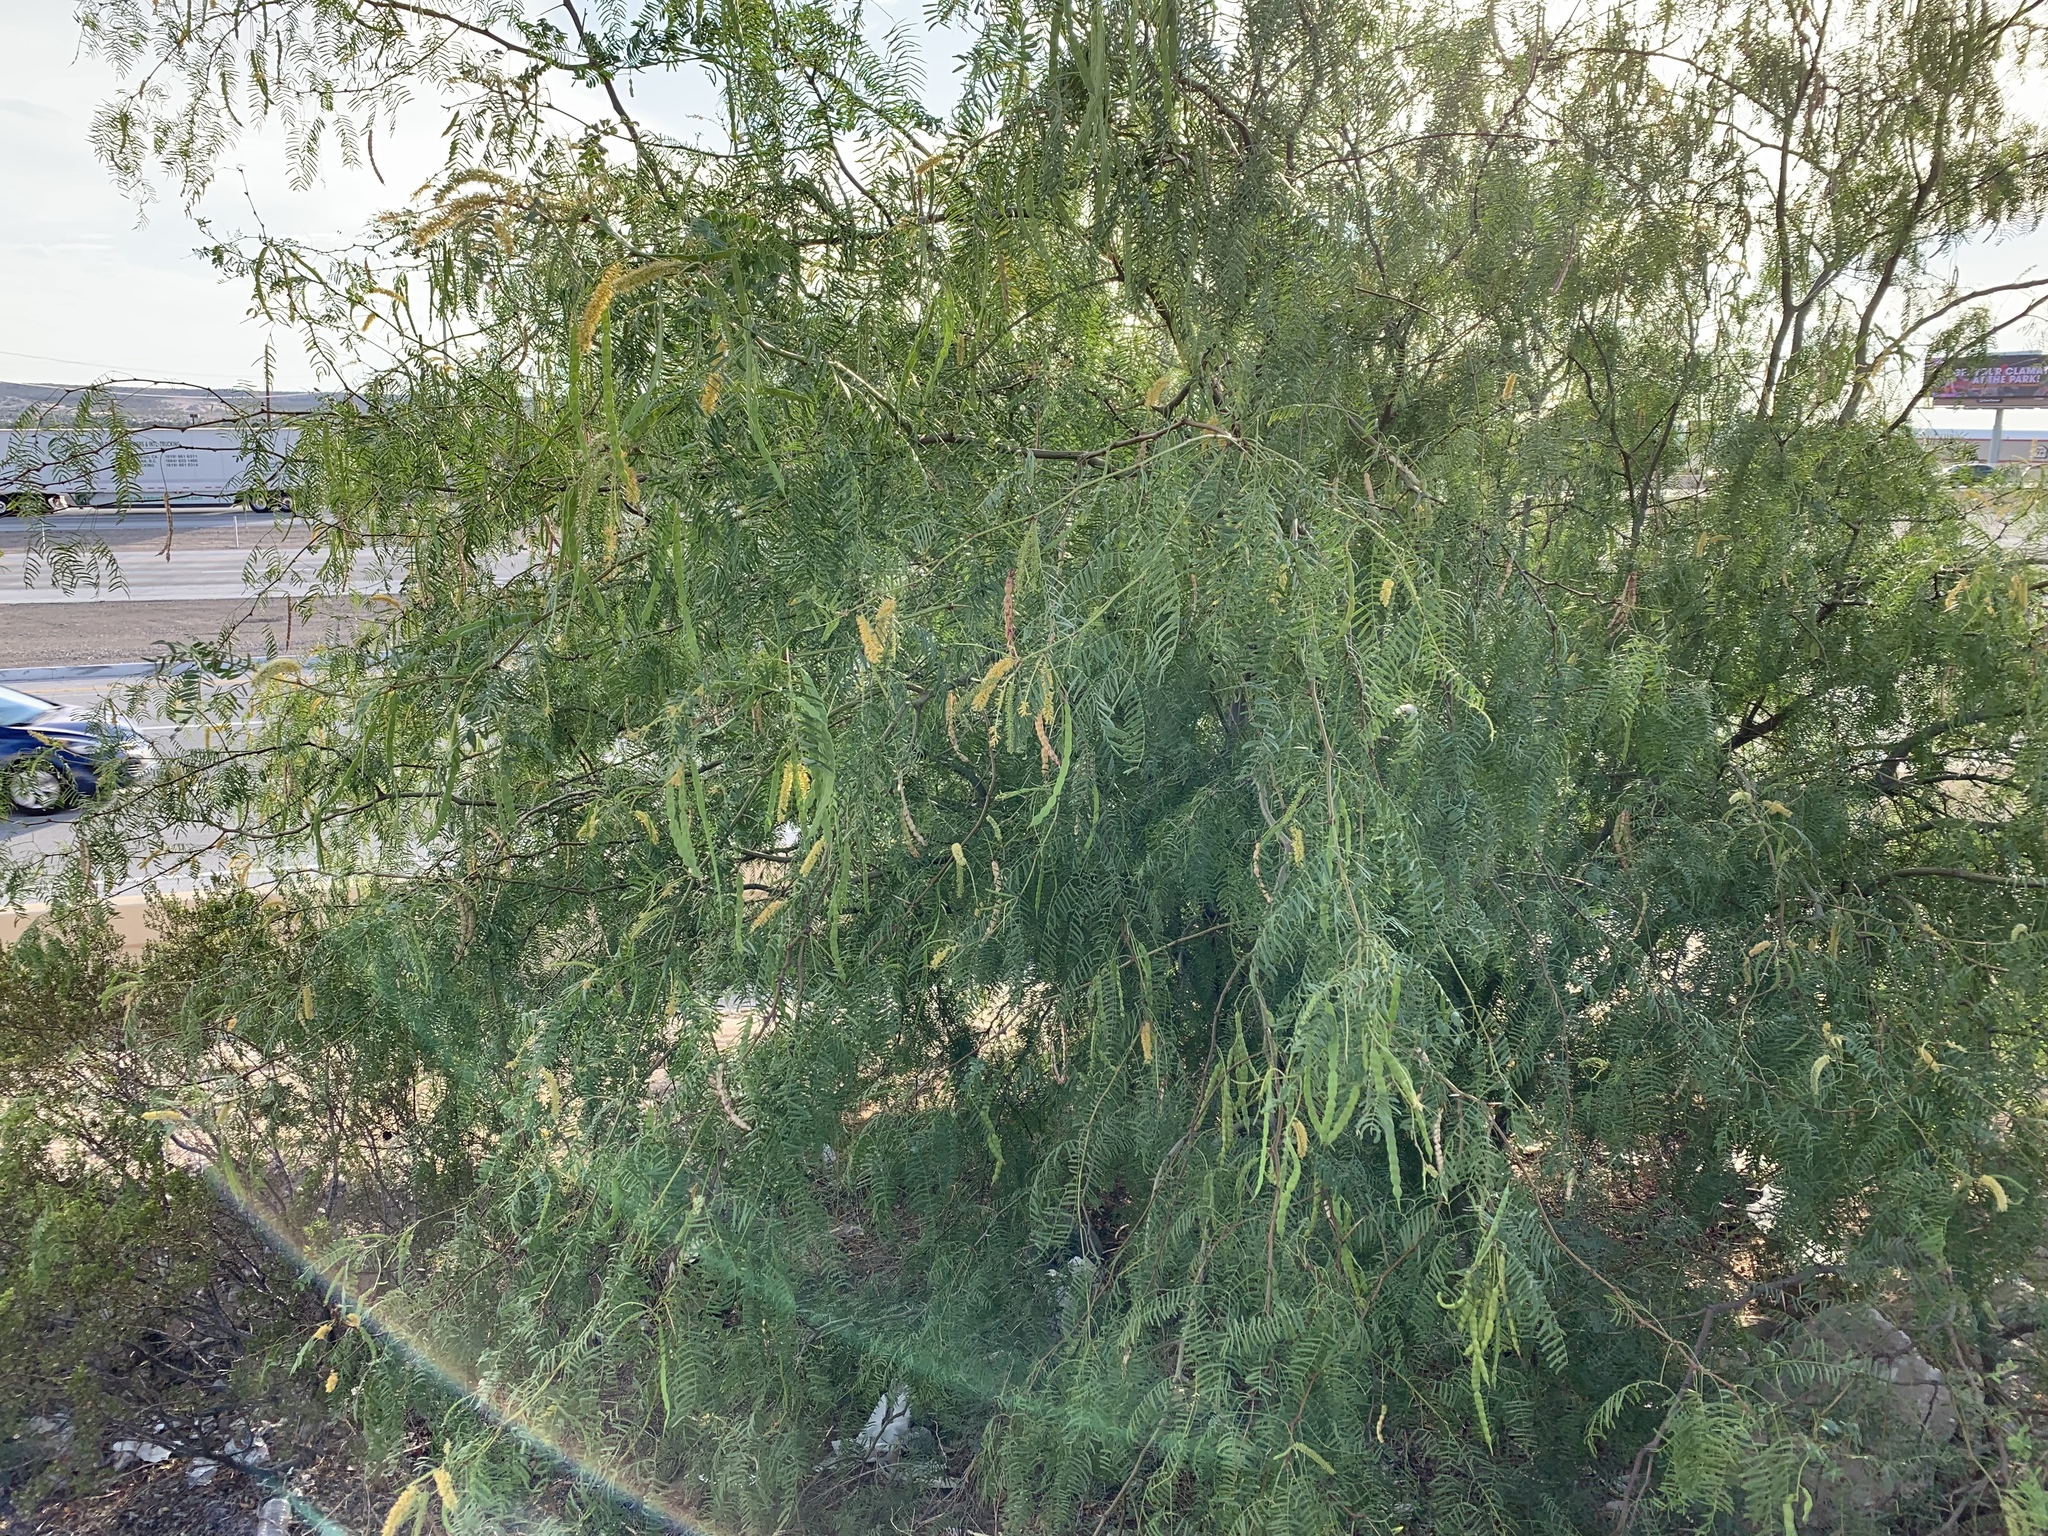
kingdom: Plantae
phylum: Tracheophyta
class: Magnoliopsida
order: Fabales
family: Fabaceae
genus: Prosopis
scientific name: Prosopis glandulosa
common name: Honey mesquite
